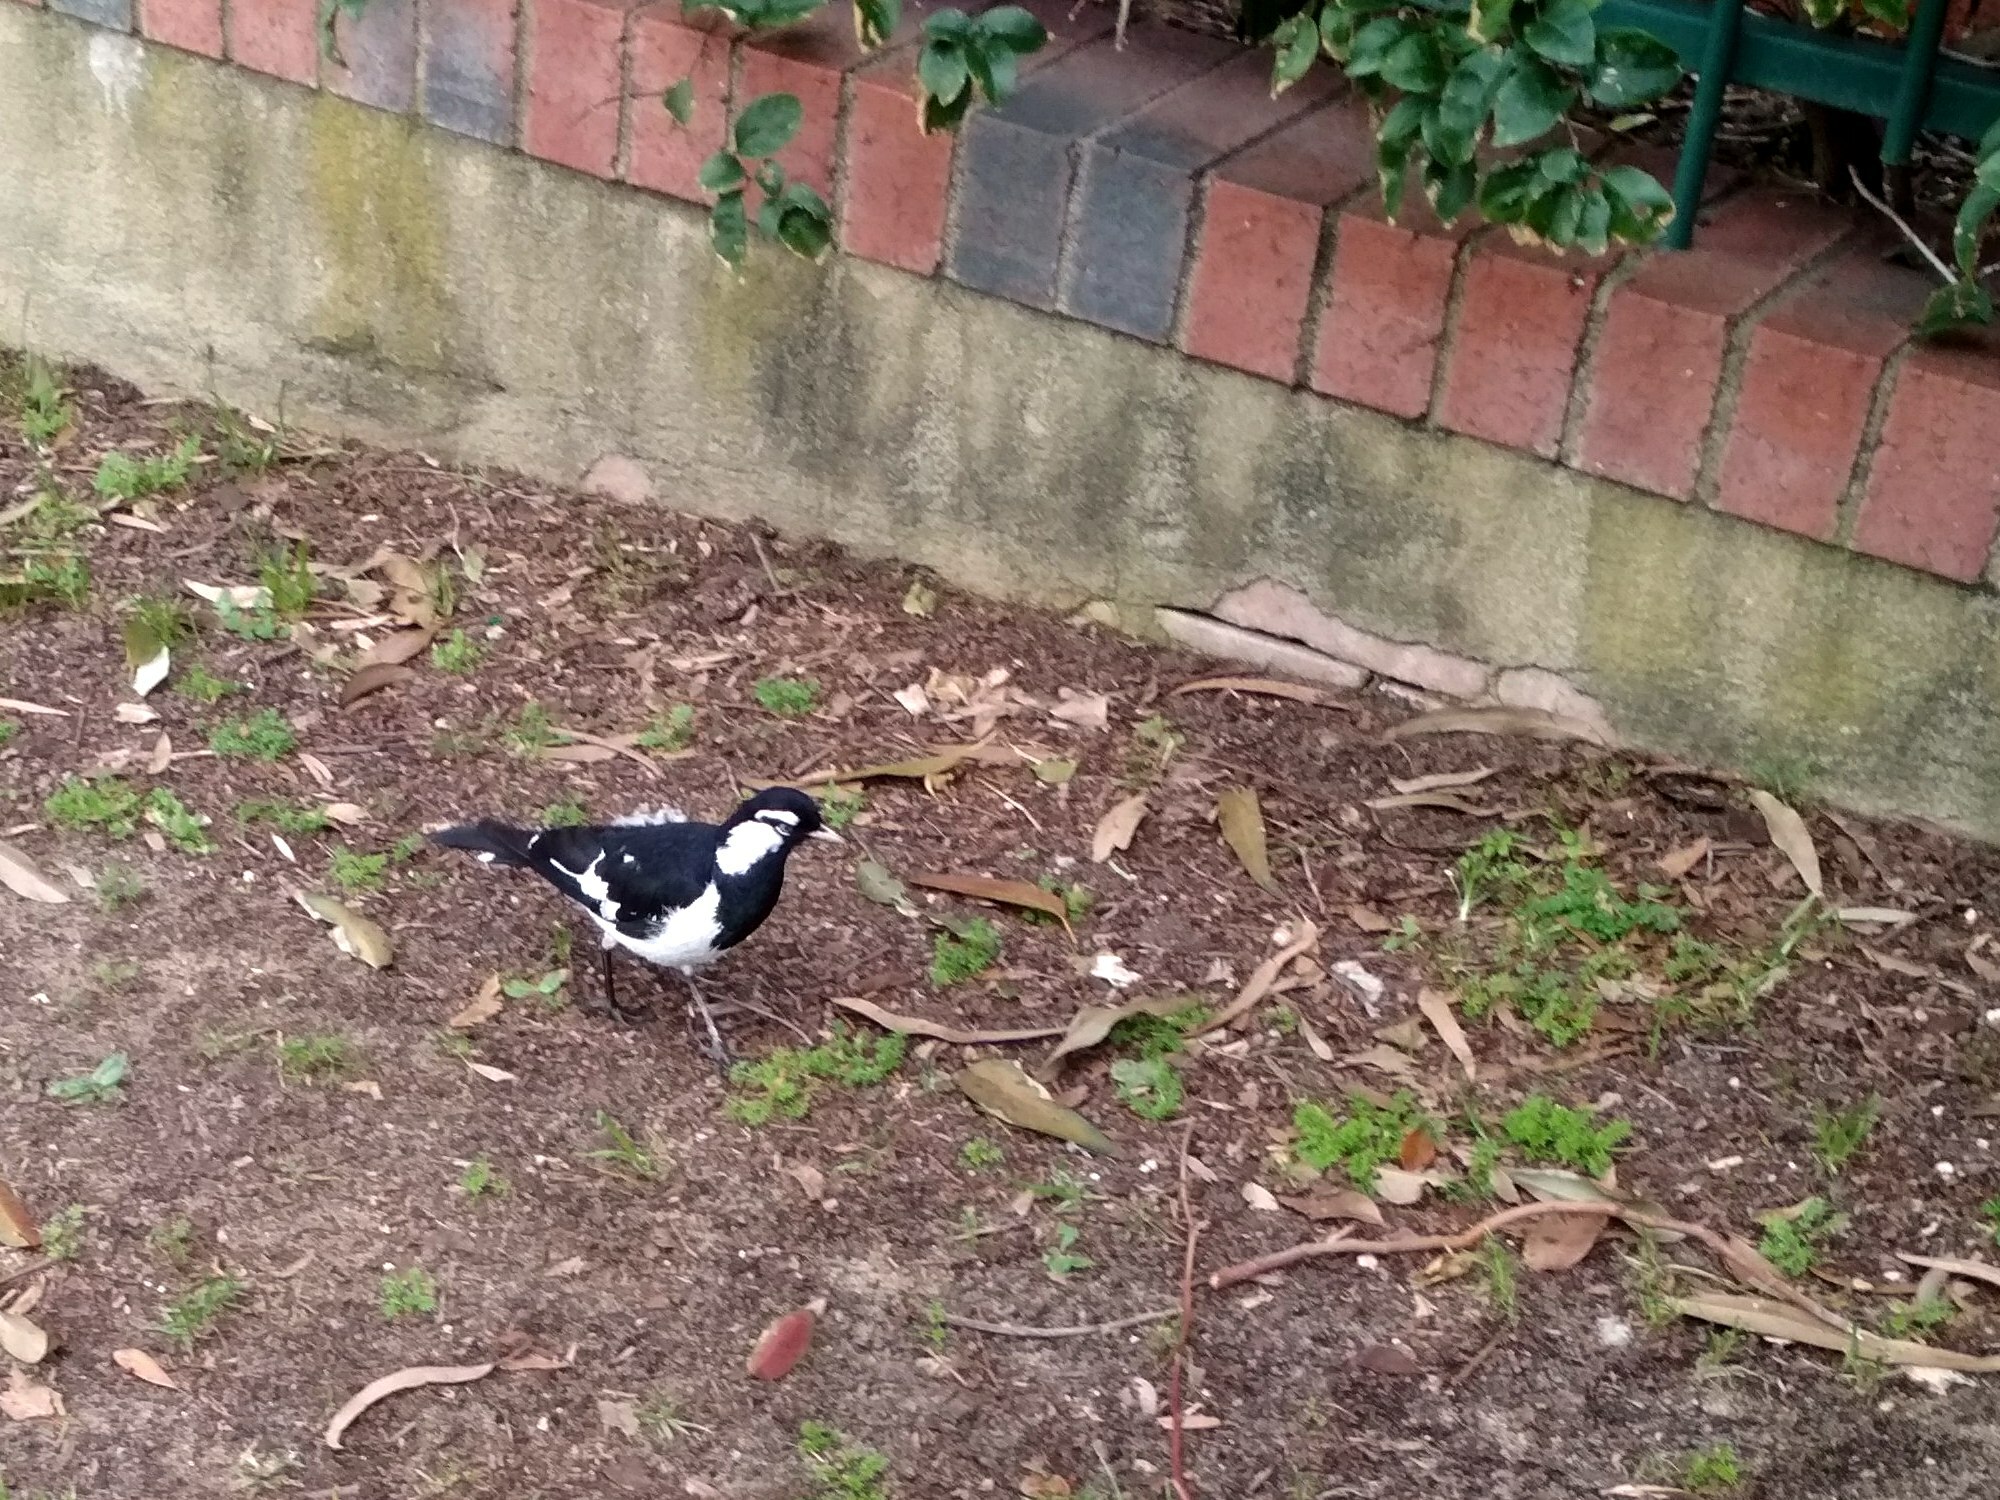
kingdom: Animalia
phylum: Chordata
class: Aves
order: Passeriformes
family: Monarchidae
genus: Grallina
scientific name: Grallina cyanoleuca
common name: Magpie-lark
